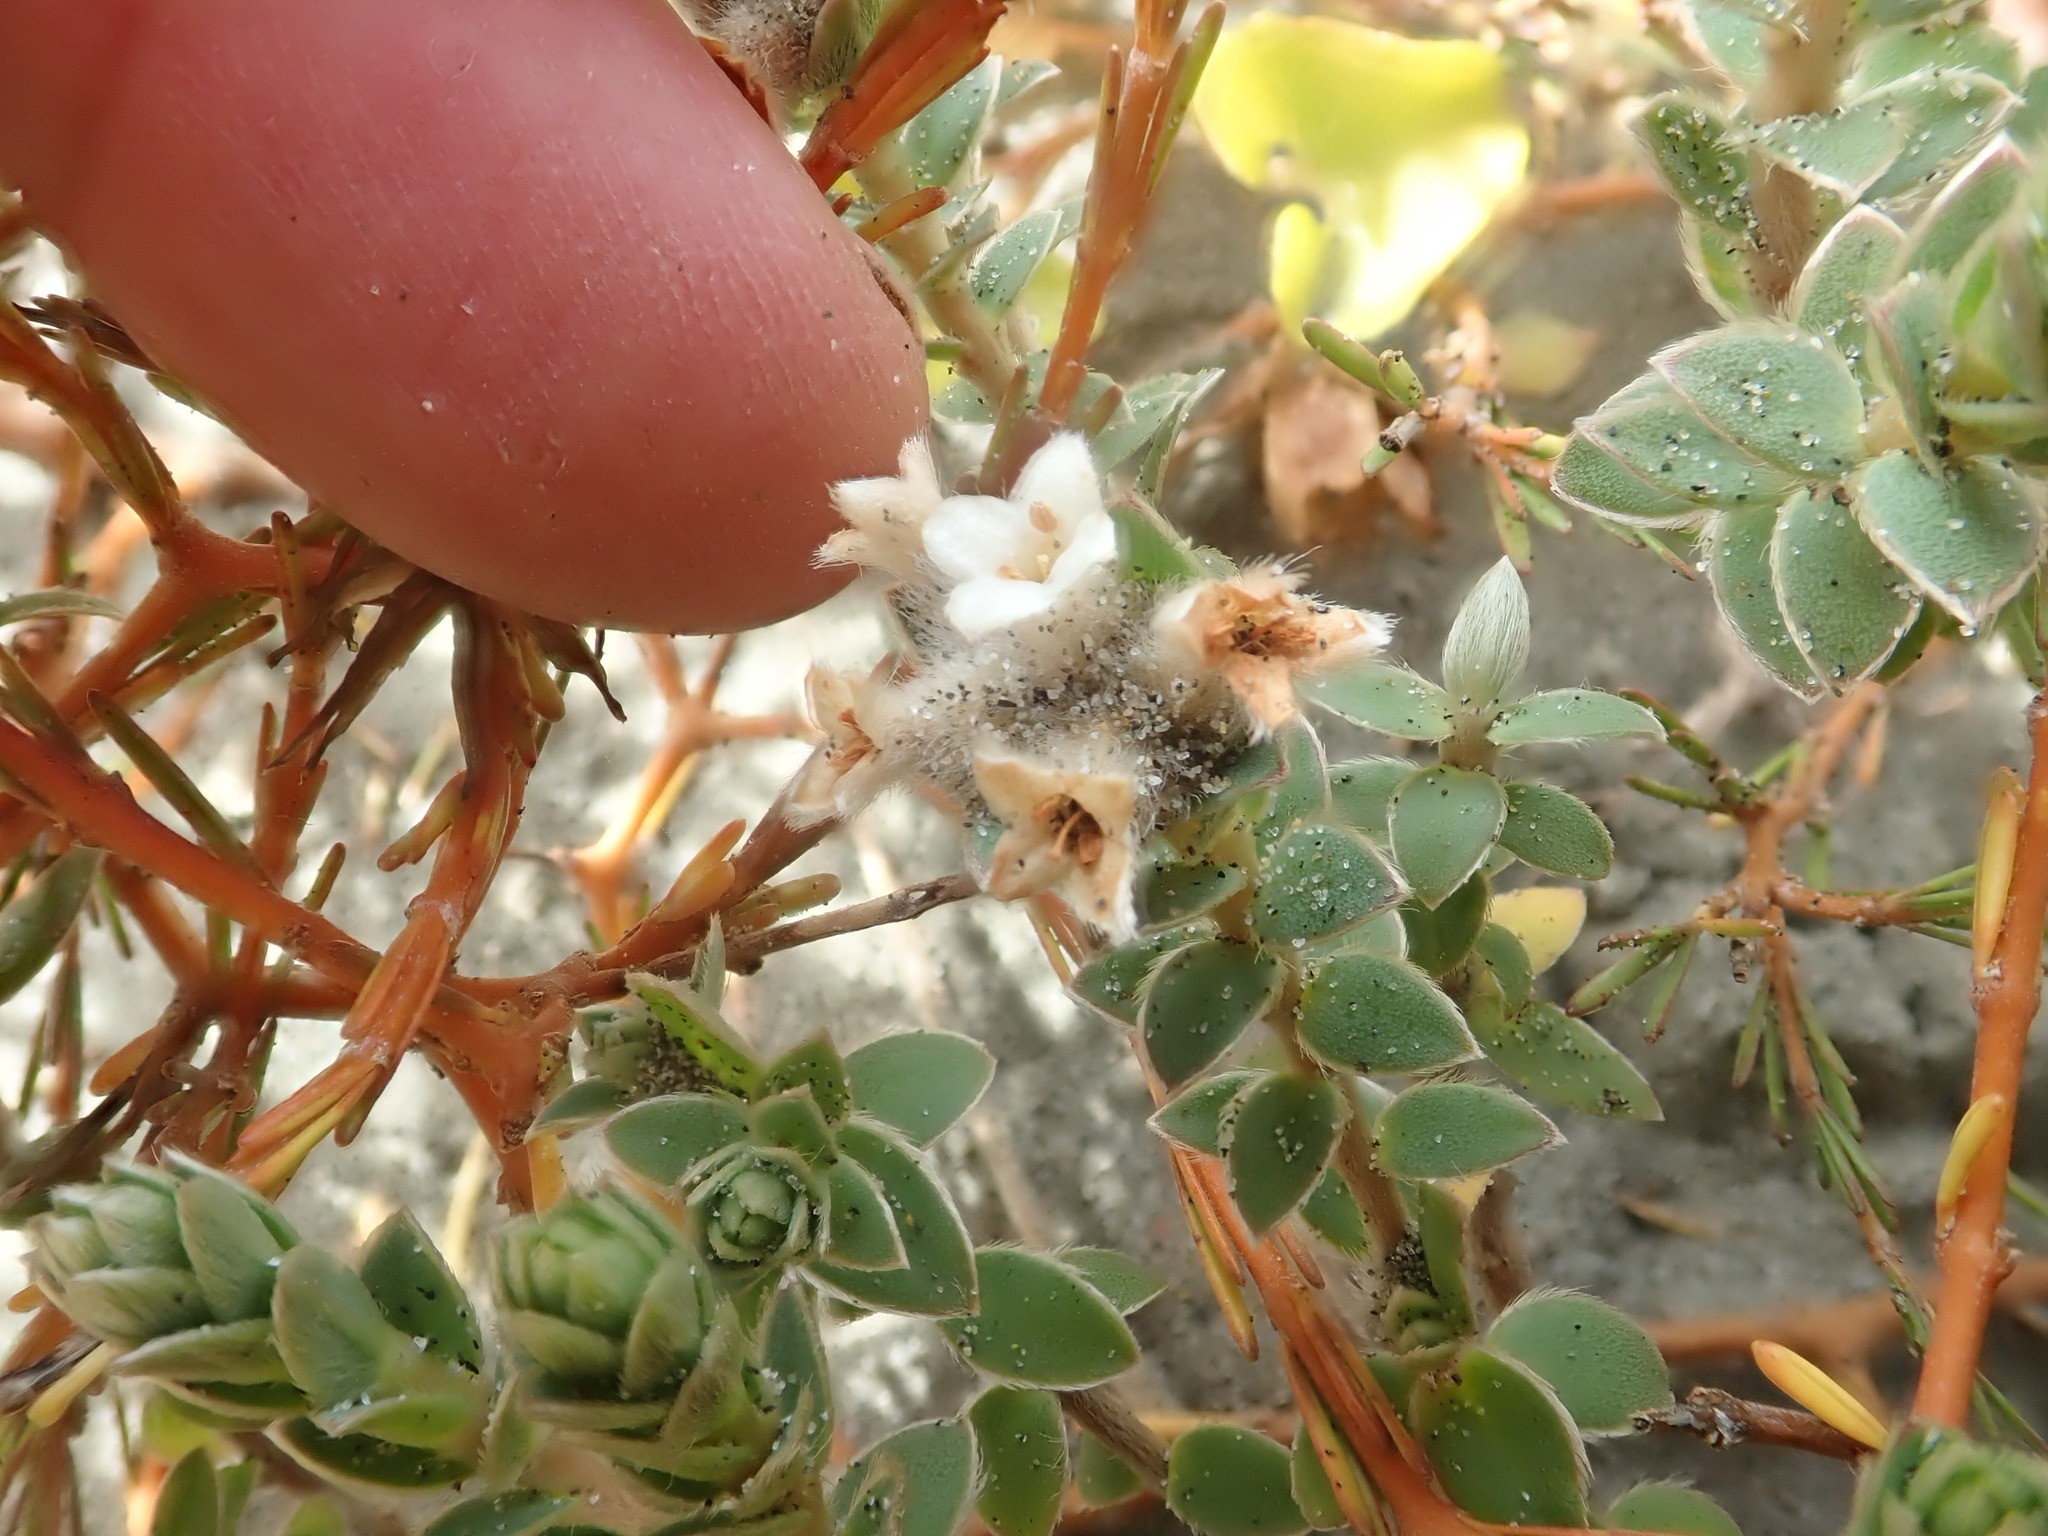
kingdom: Plantae
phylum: Tracheophyta
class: Magnoliopsida
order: Malvales
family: Thymelaeaceae
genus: Pimelea
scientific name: Pimelea villosa
